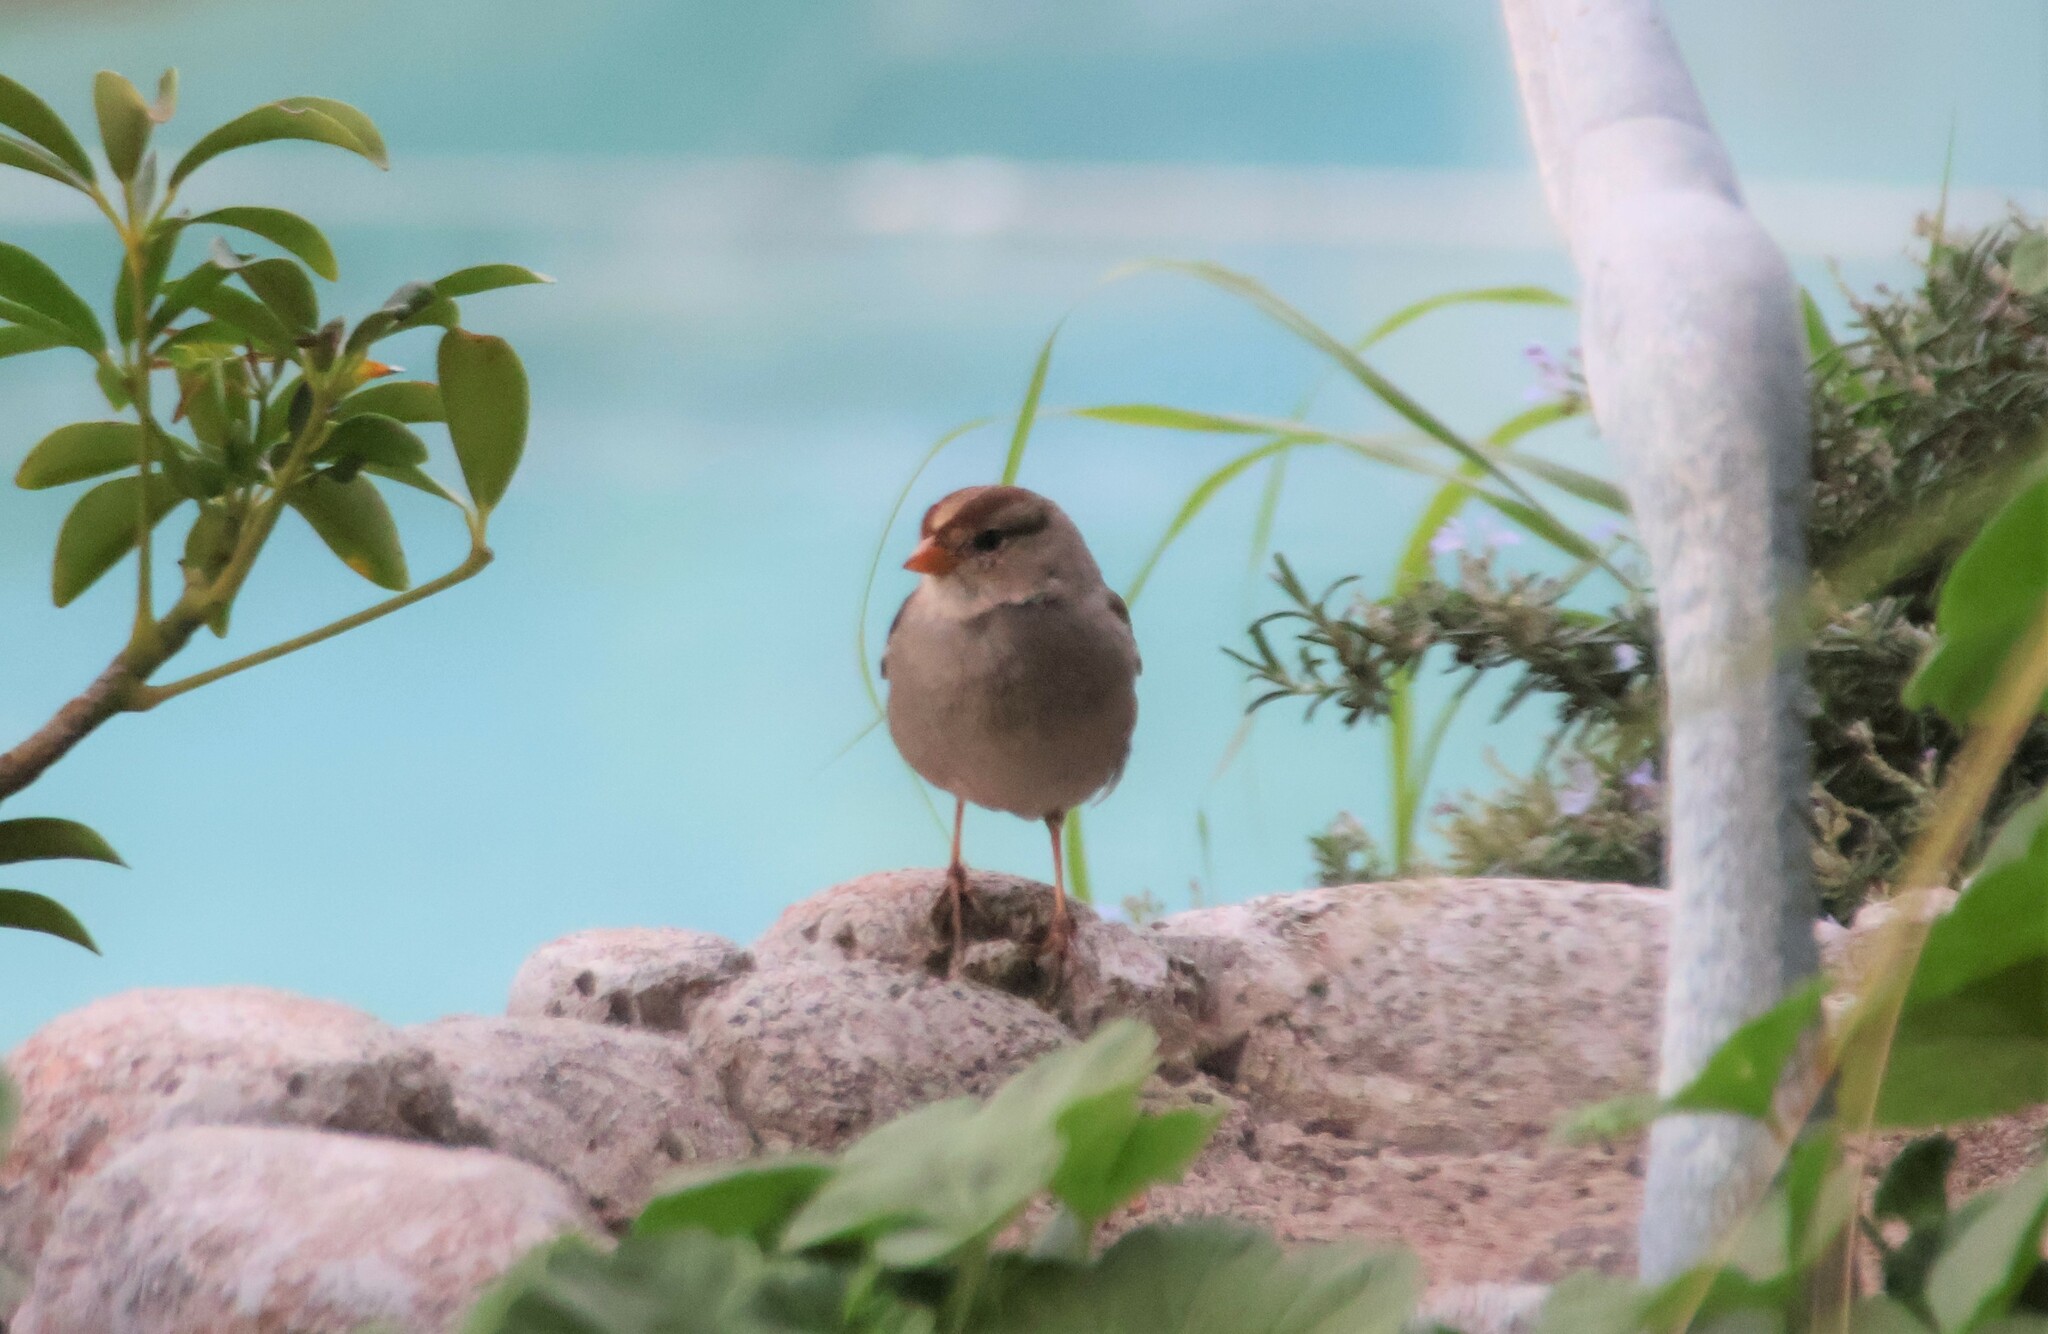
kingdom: Animalia
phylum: Chordata
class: Aves
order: Passeriformes
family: Passerellidae
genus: Zonotrichia
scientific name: Zonotrichia leucophrys
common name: White-crowned sparrow
